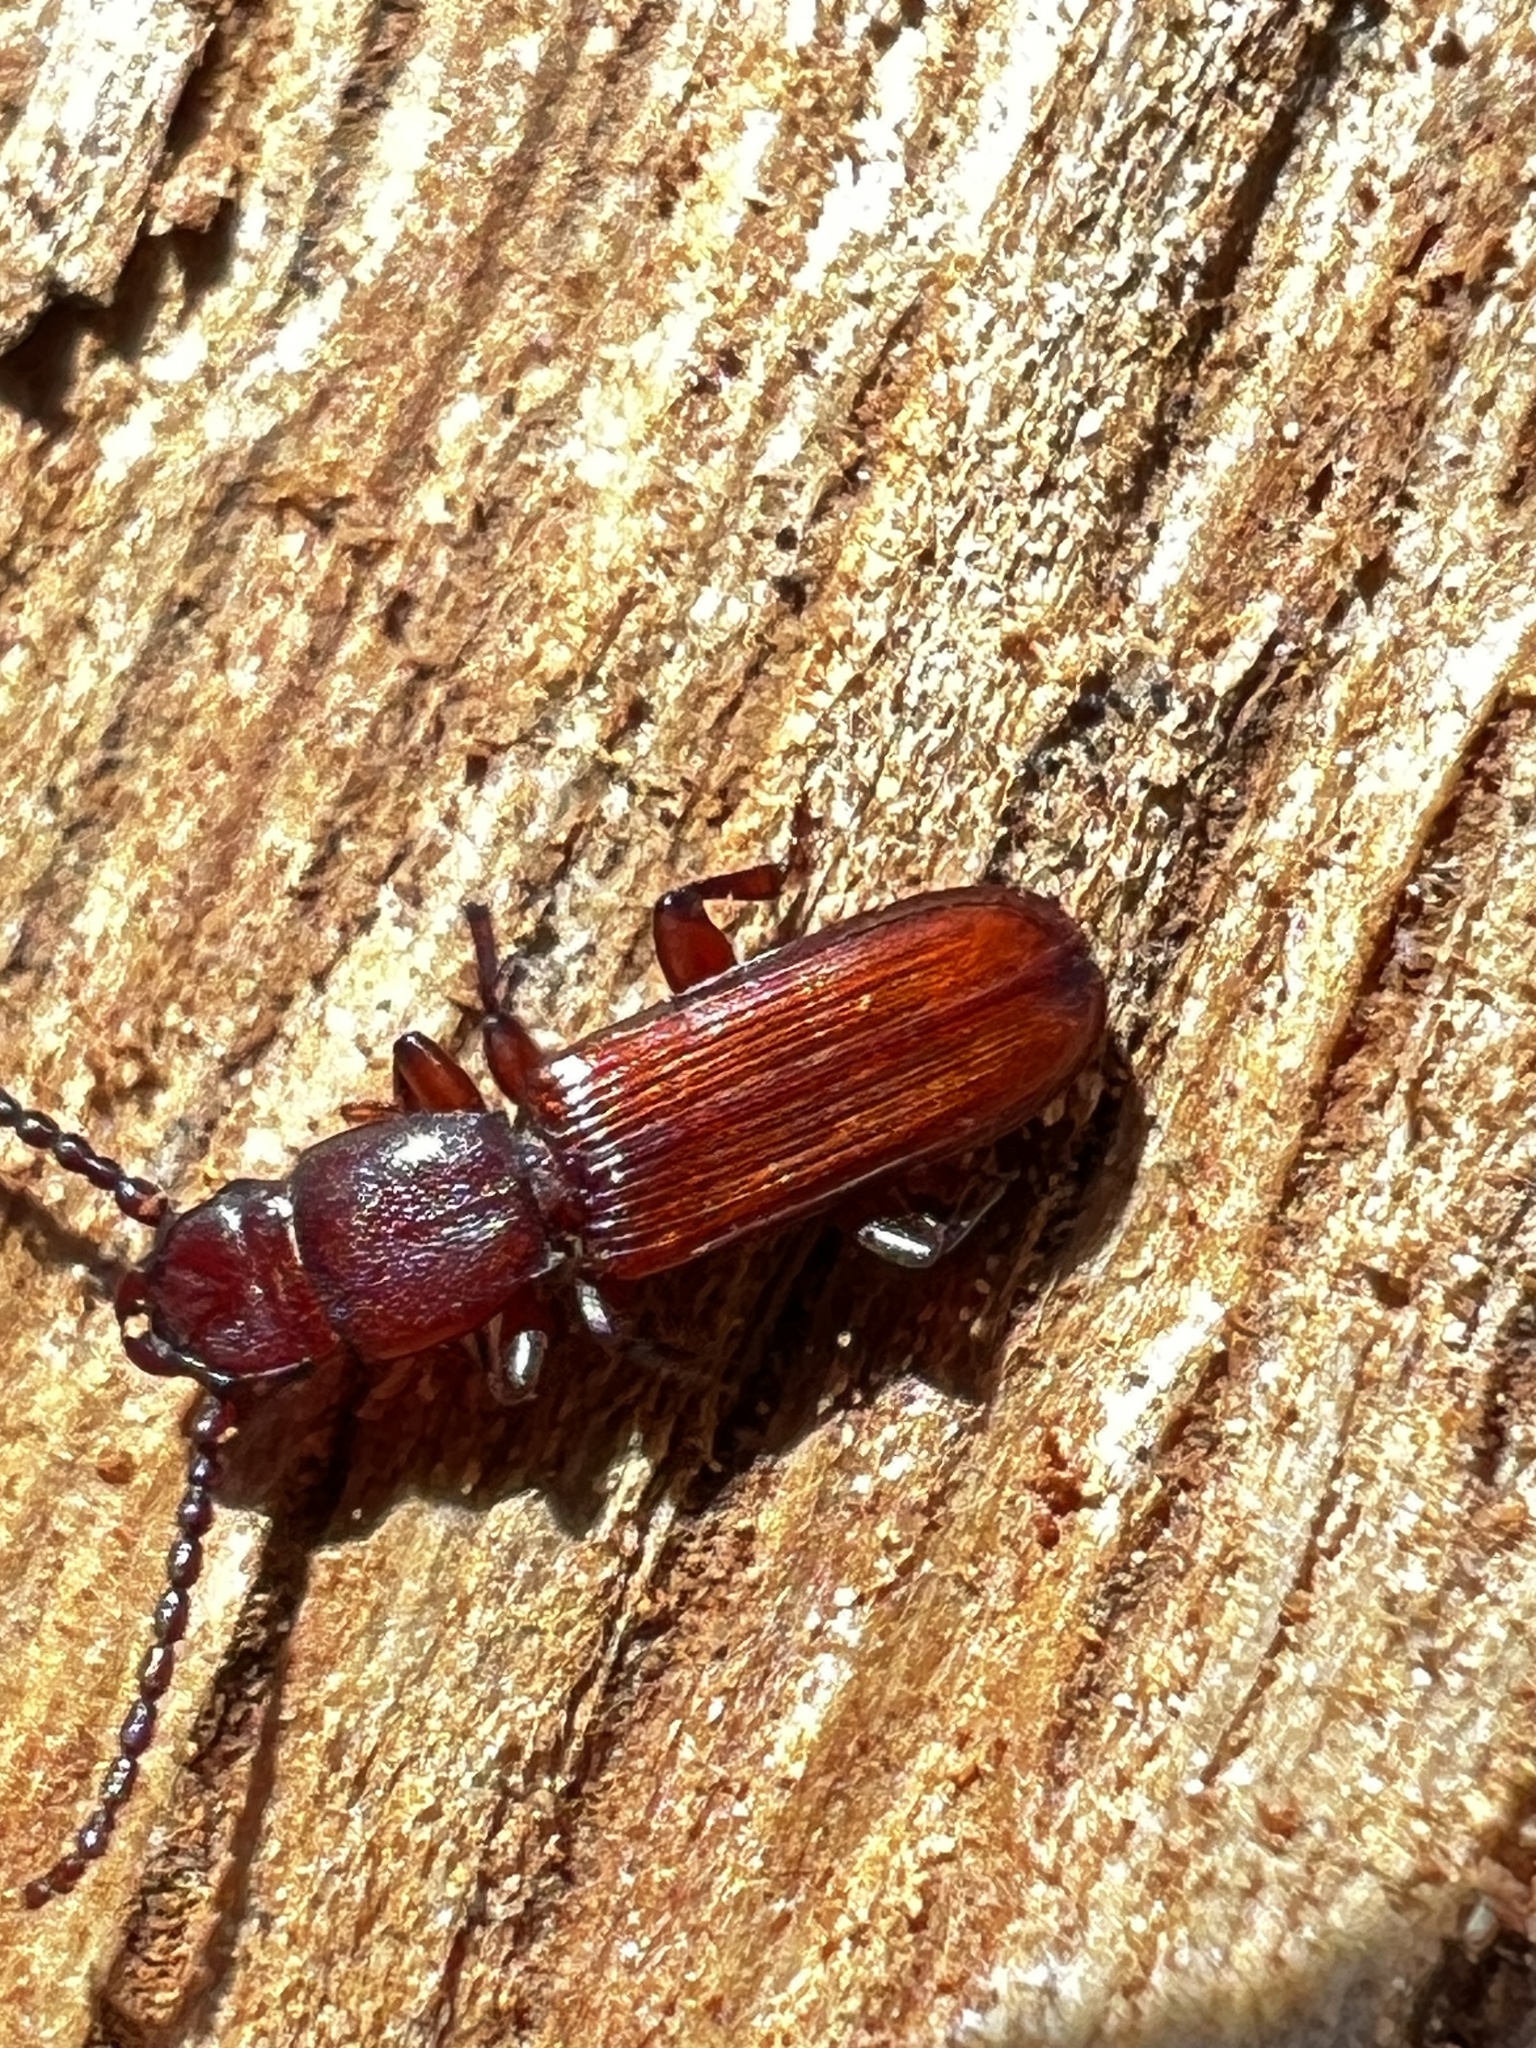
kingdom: Animalia
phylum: Arthropoda
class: Insecta
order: Coleoptera
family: Passandridae
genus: Catogenus
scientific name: Catogenus rufus
